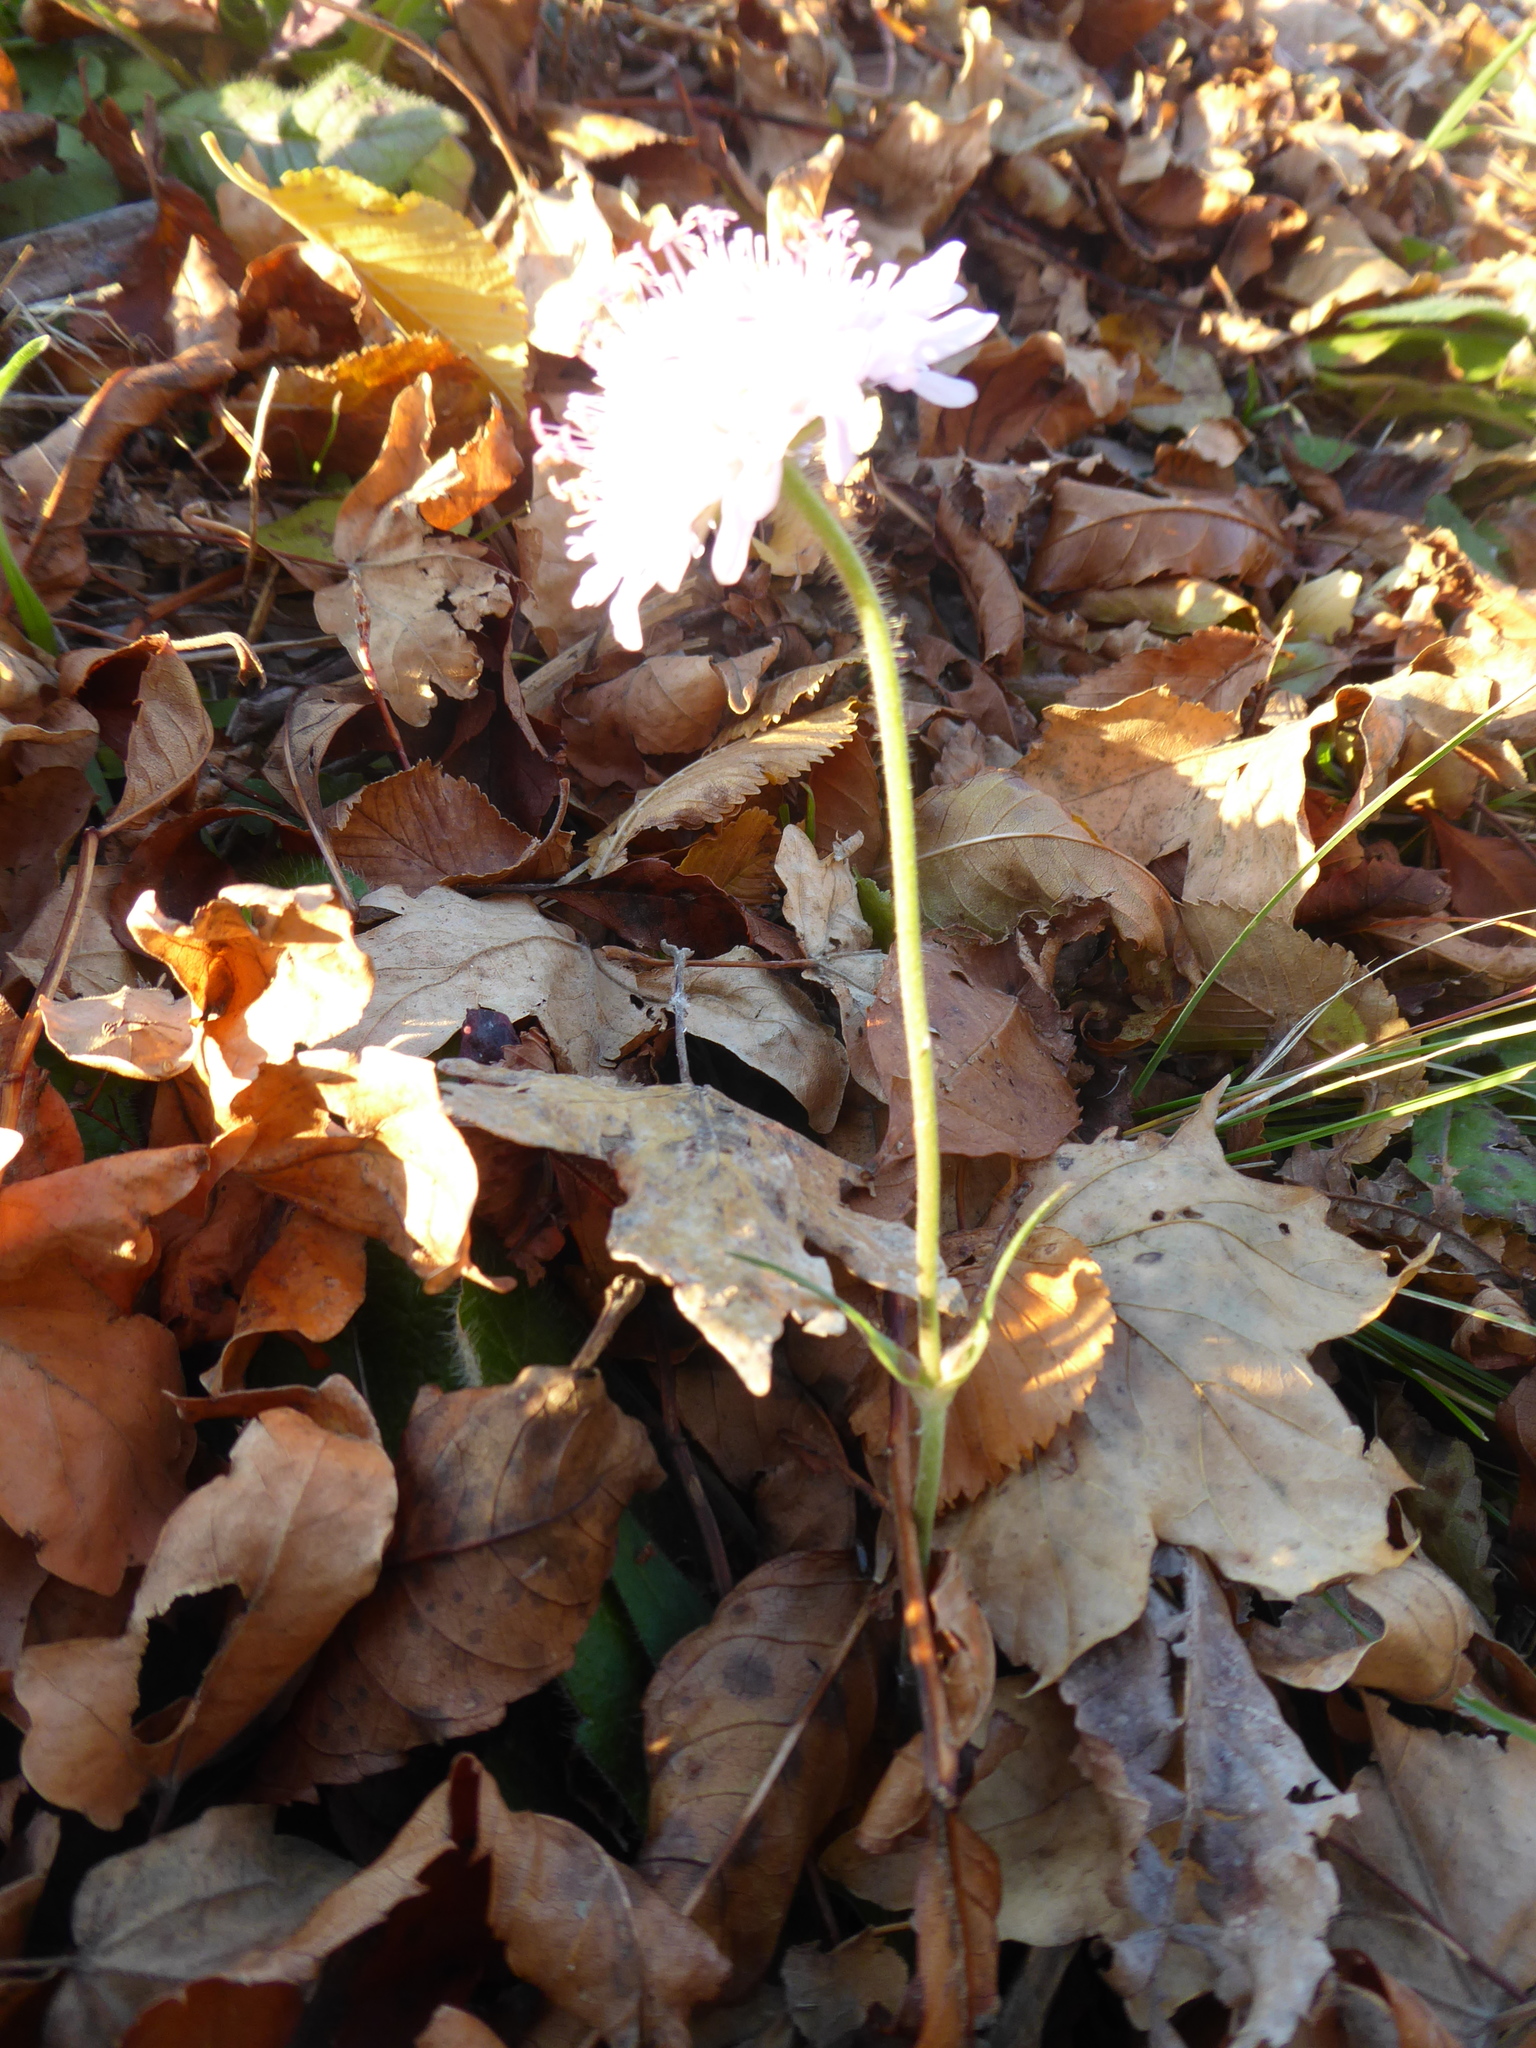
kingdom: Plantae
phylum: Tracheophyta
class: Magnoliopsida
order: Dipsacales
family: Caprifoliaceae
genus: Knautia
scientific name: Knautia arvensis
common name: Field scabiosa
